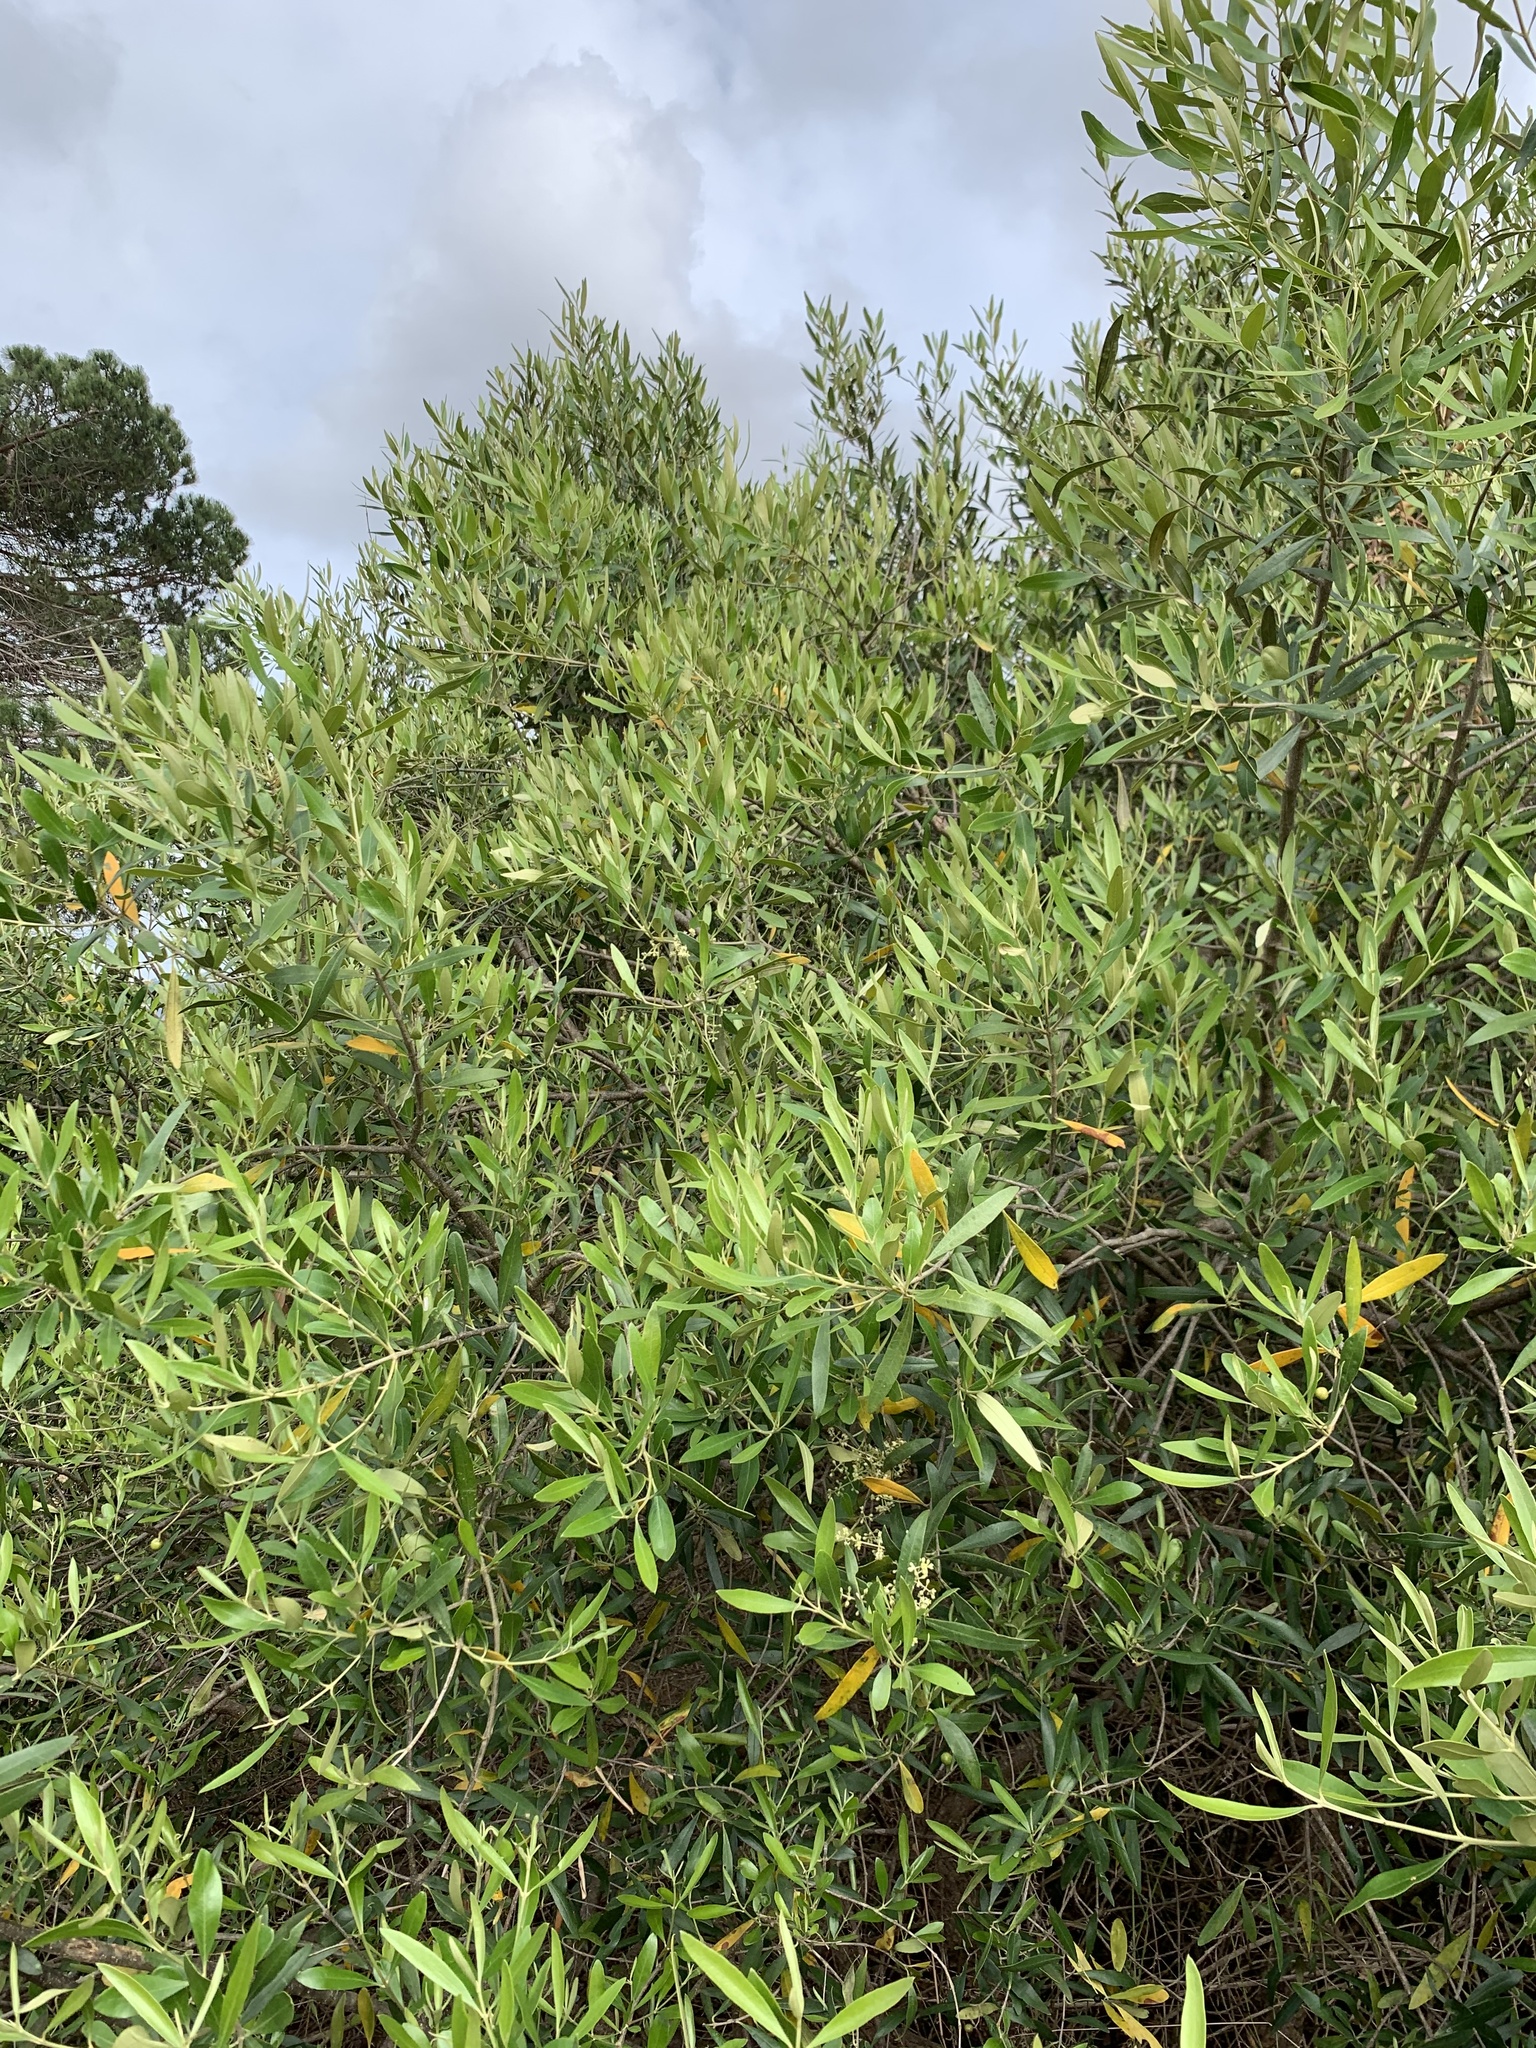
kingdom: Plantae
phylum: Tracheophyta
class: Magnoliopsida
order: Lamiales
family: Oleaceae
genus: Olea
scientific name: Olea europaea
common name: Olive
